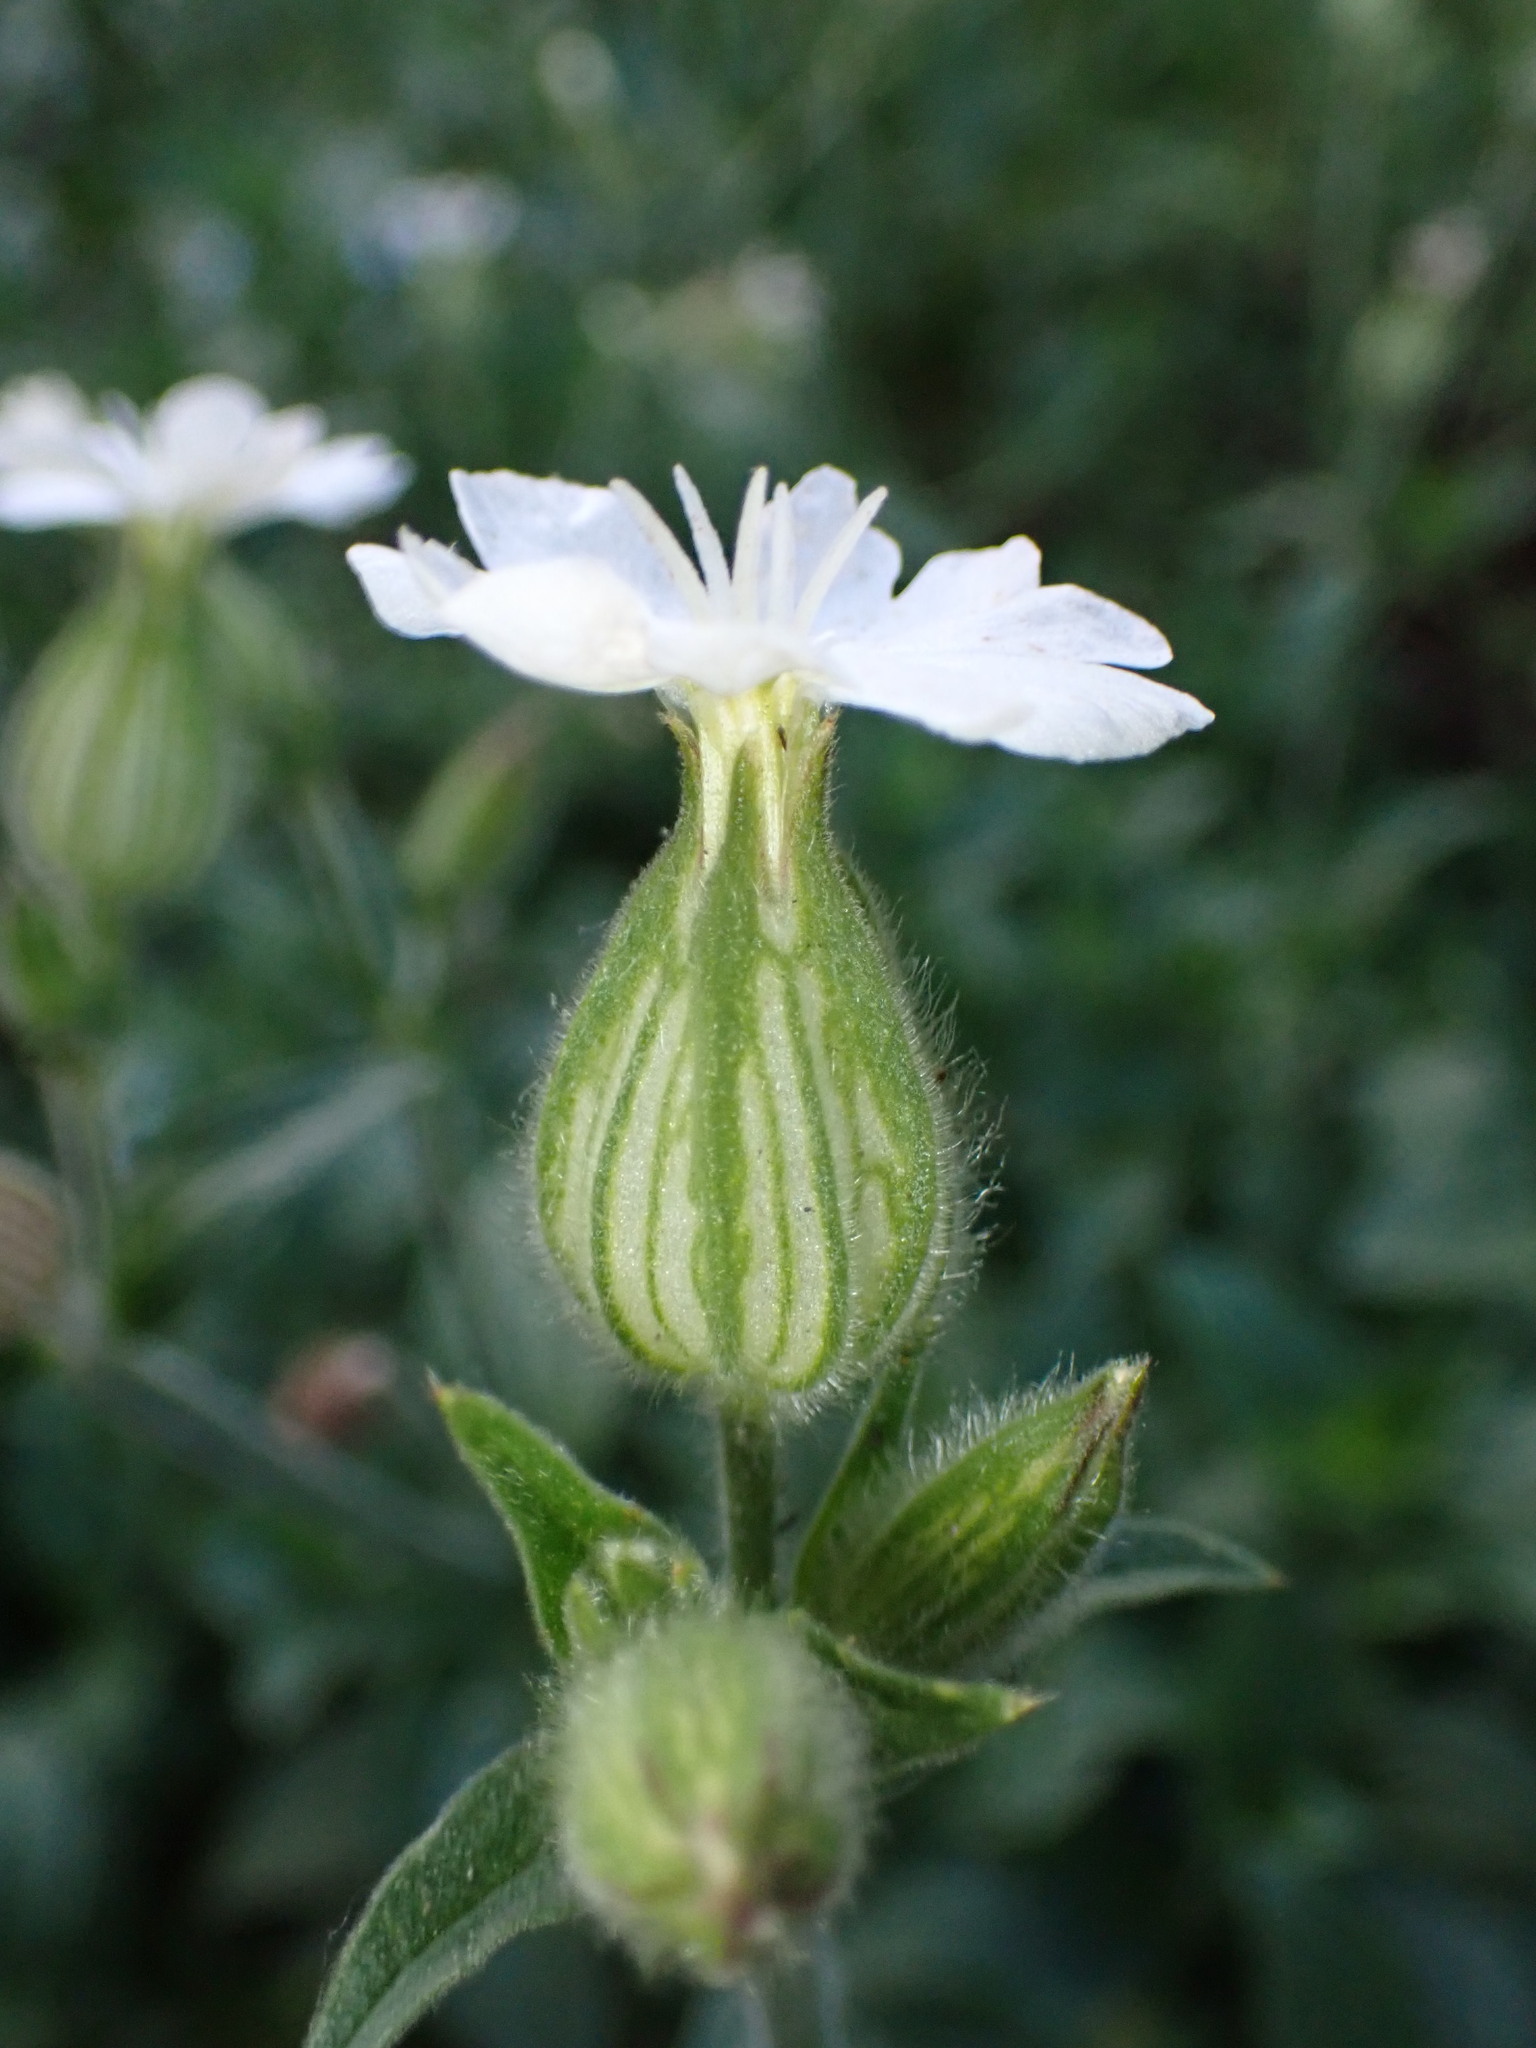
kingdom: Plantae
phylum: Tracheophyta
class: Magnoliopsida
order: Caryophyllales
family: Caryophyllaceae
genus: Silene
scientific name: Silene latifolia
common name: White campion
